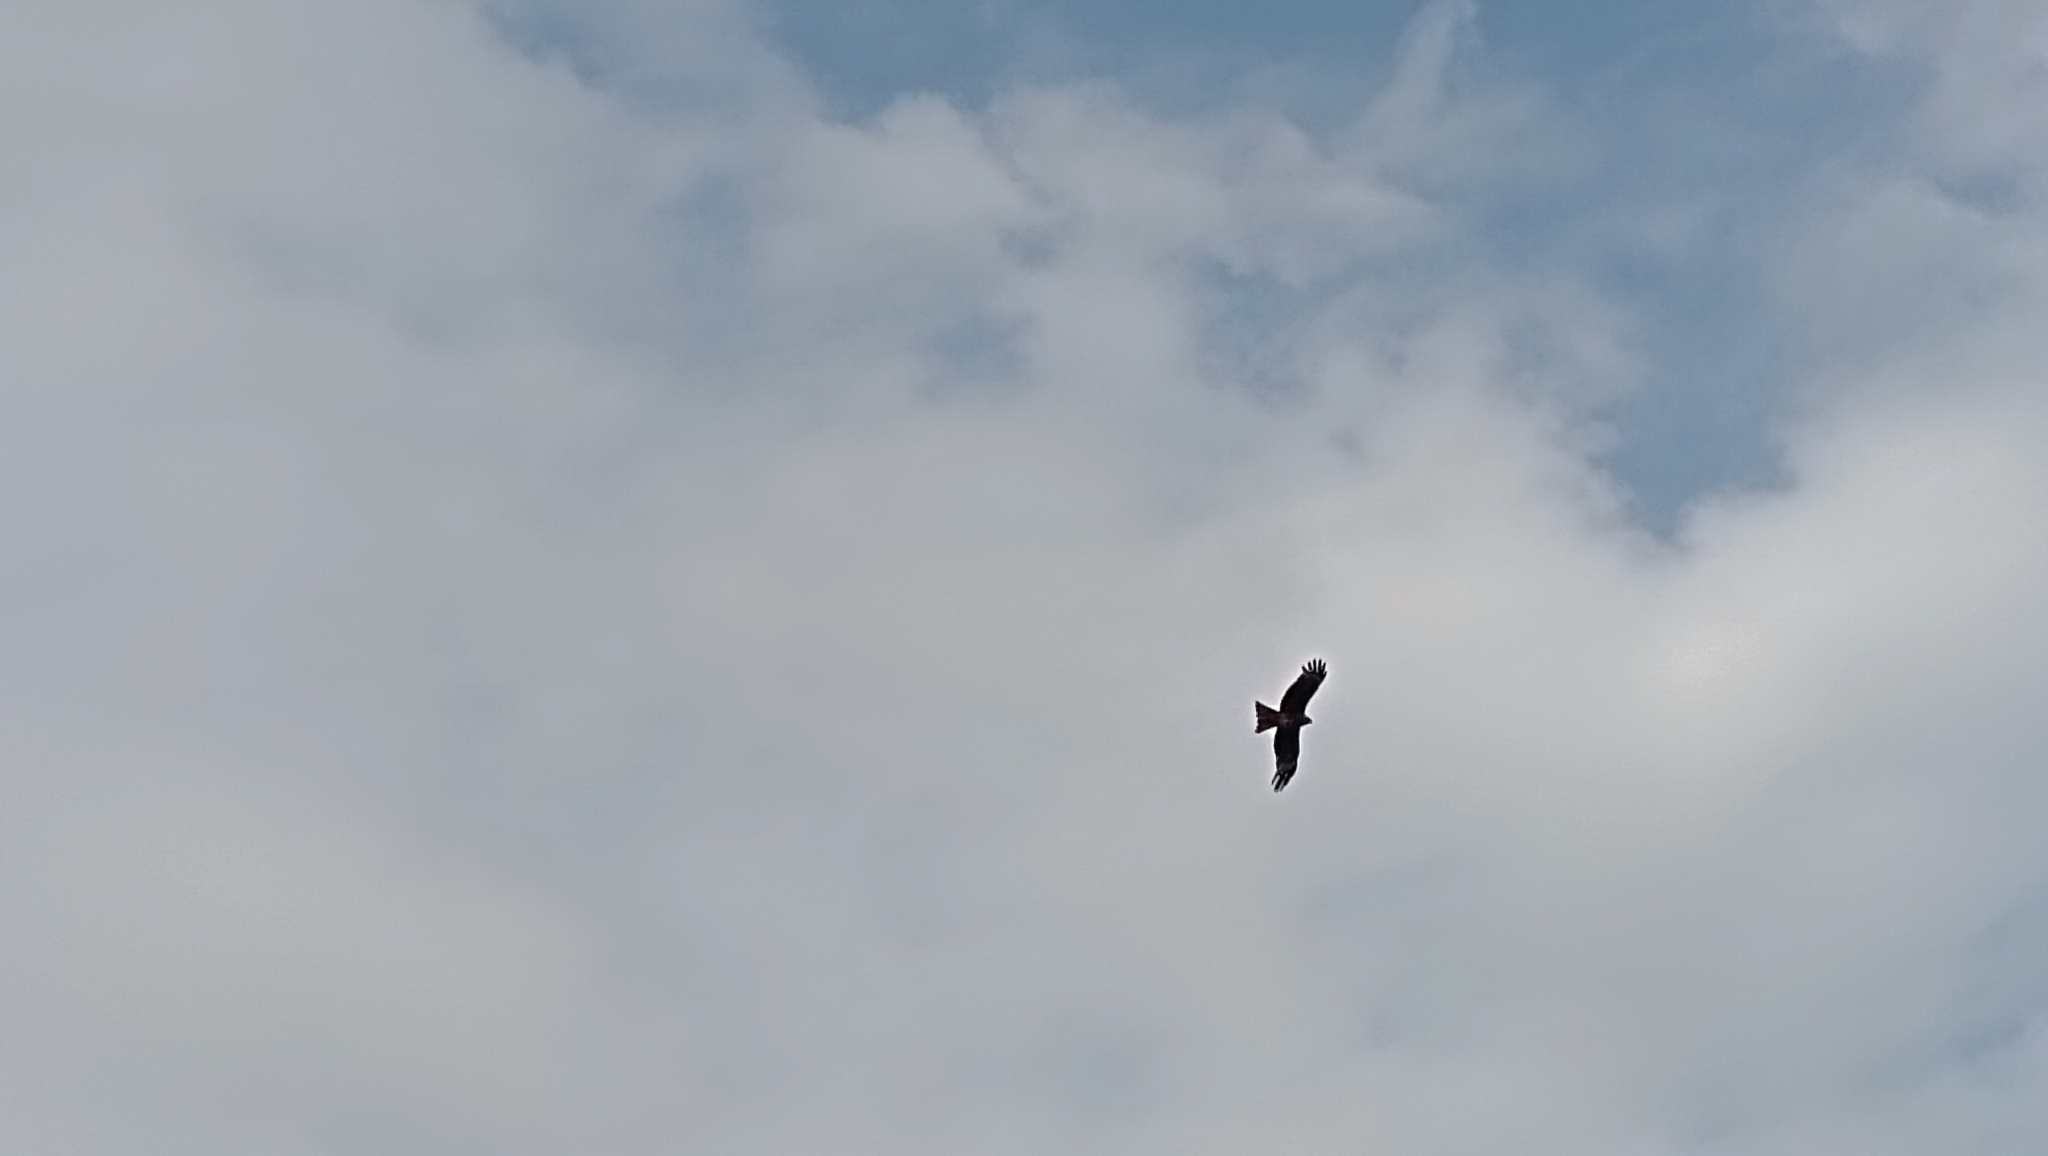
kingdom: Animalia
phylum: Chordata
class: Aves
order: Accipitriformes
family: Accipitridae
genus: Milvus
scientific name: Milvus migrans
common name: Black kite
